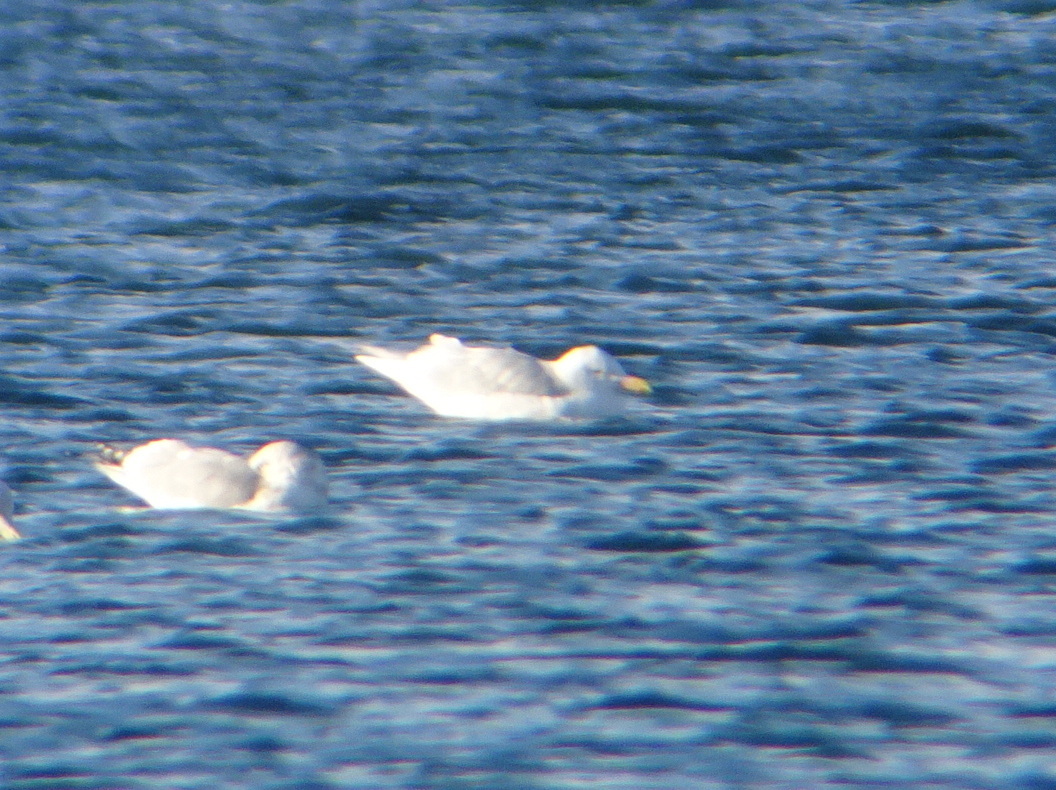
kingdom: Animalia
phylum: Chordata
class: Aves
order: Charadriiformes
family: Laridae
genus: Larus
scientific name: Larus hyperboreus
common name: Glaucous gull
